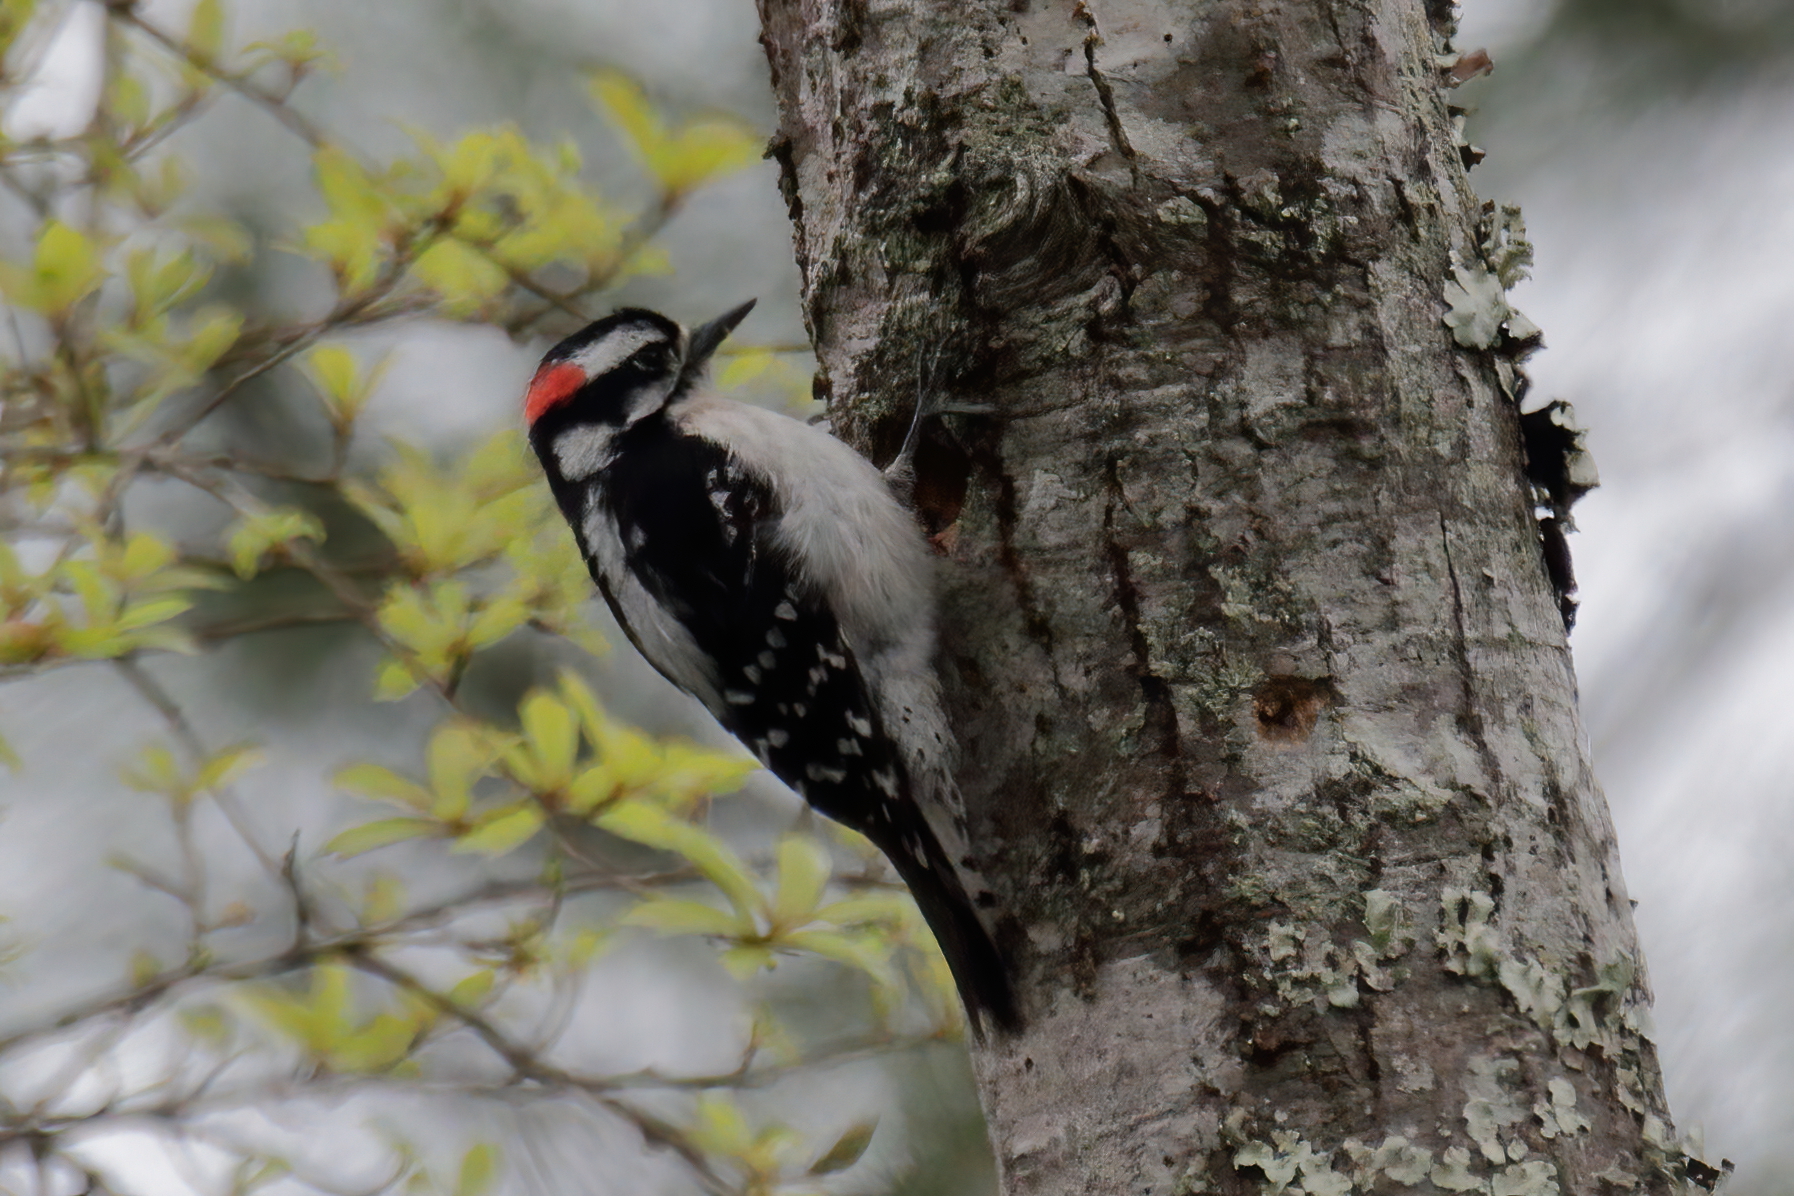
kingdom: Animalia
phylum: Chordata
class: Aves
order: Piciformes
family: Picidae
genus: Dryobates
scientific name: Dryobates pubescens
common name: Downy woodpecker
